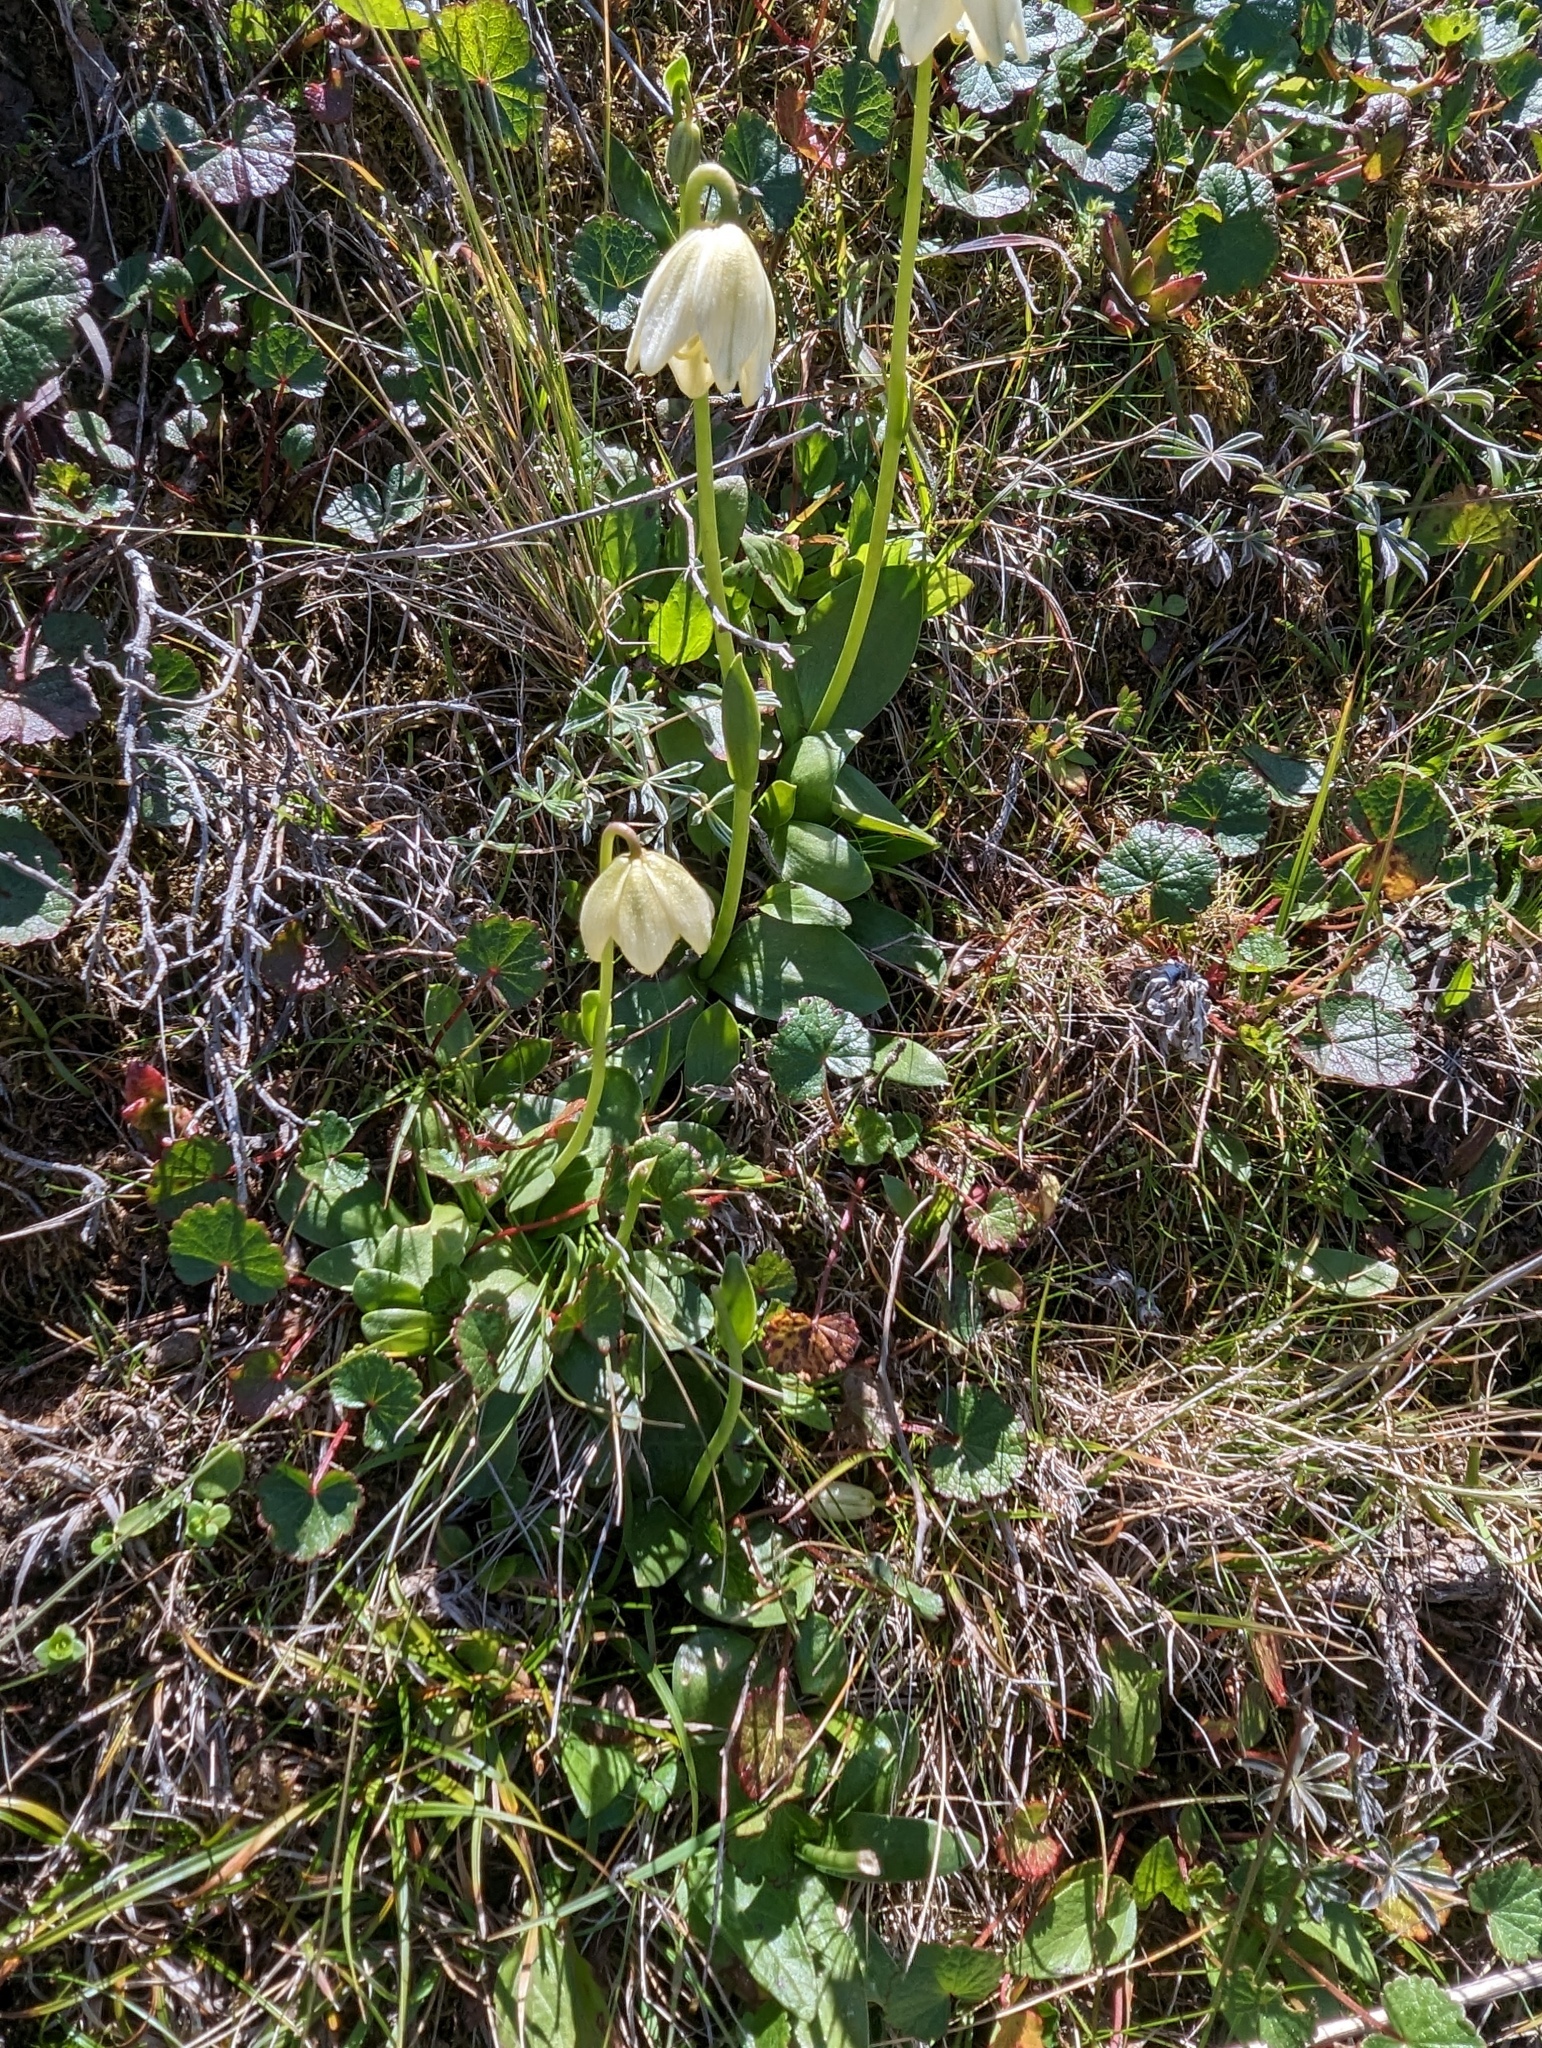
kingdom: Plantae
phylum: Tracheophyta
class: Liliopsida
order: Liliales
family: Liliaceae
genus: Fritillaria
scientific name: Fritillaria liliacea
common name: Fragrant fritillary
